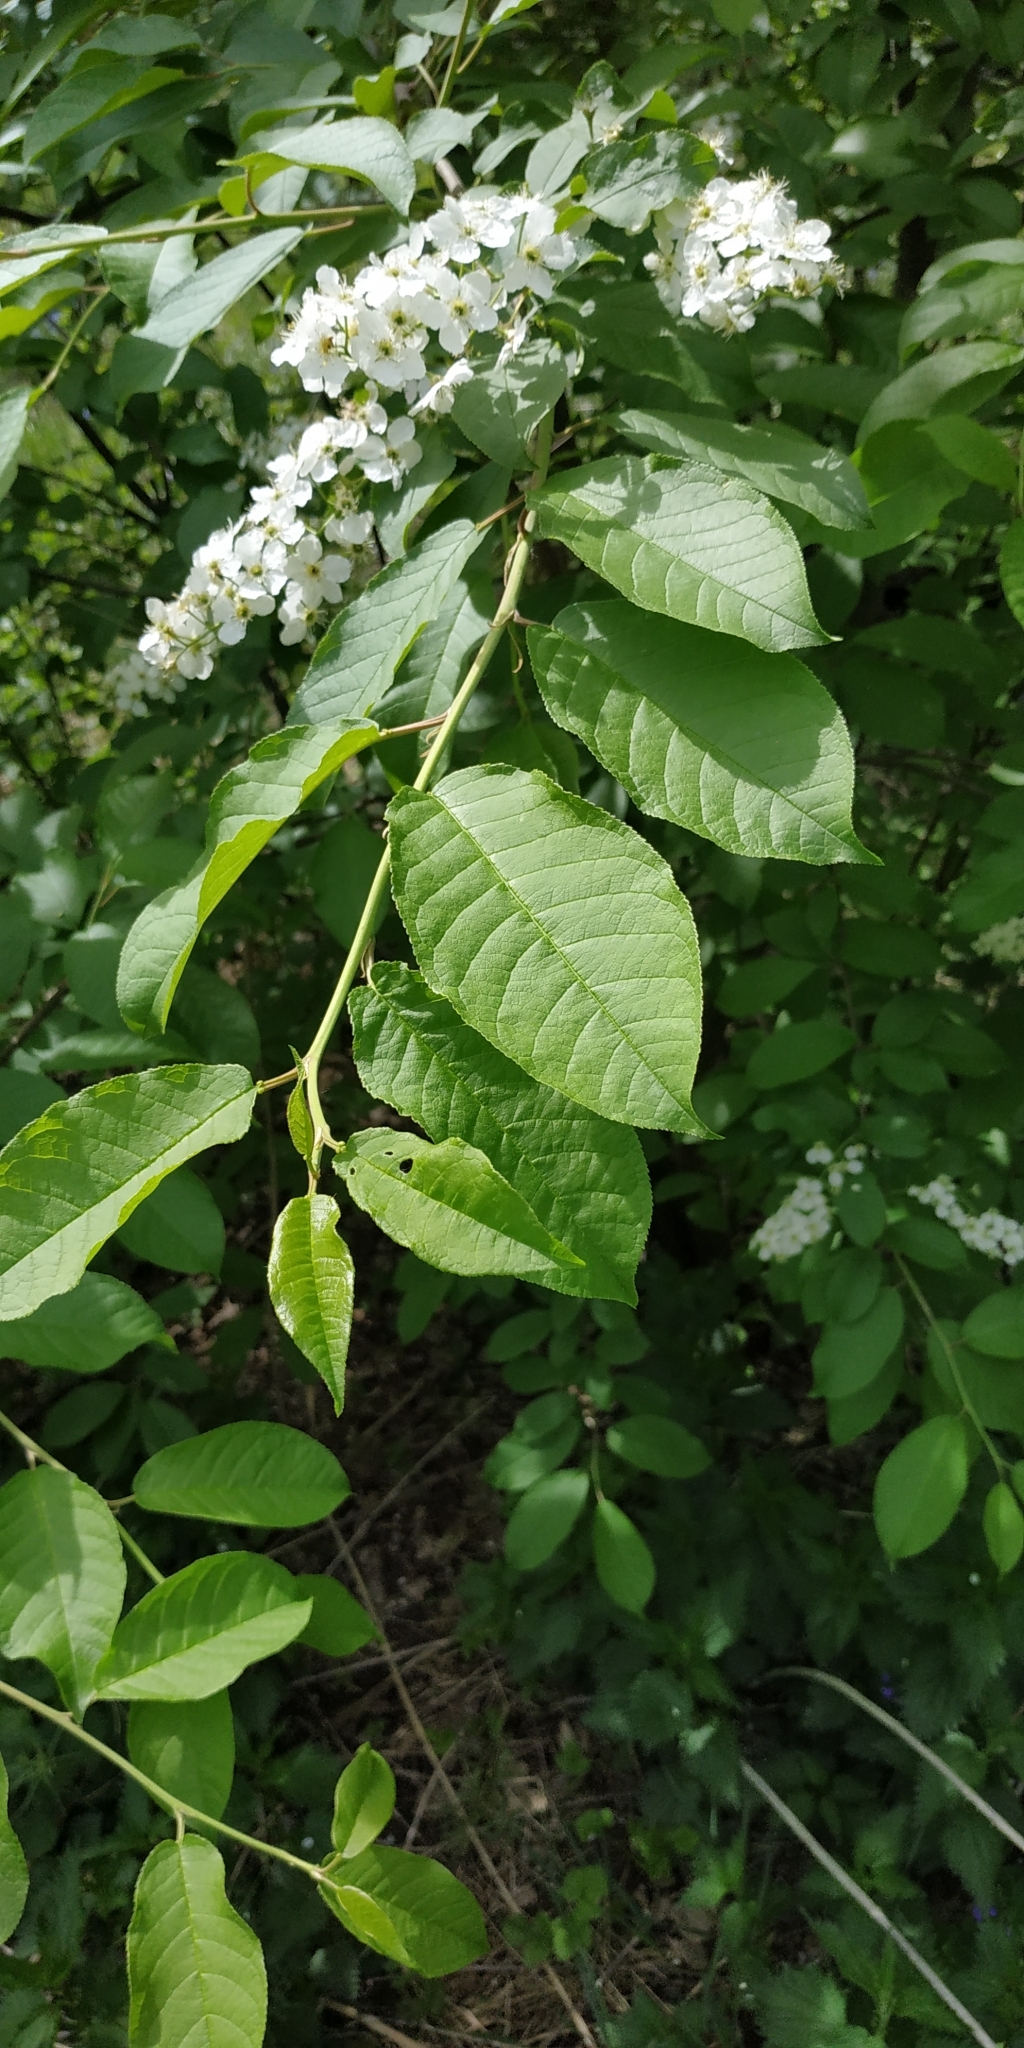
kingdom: Plantae
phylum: Tracheophyta
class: Magnoliopsida
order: Rosales
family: Rosaceae
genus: Prunus
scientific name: Prunus padus
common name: Bird cherry
